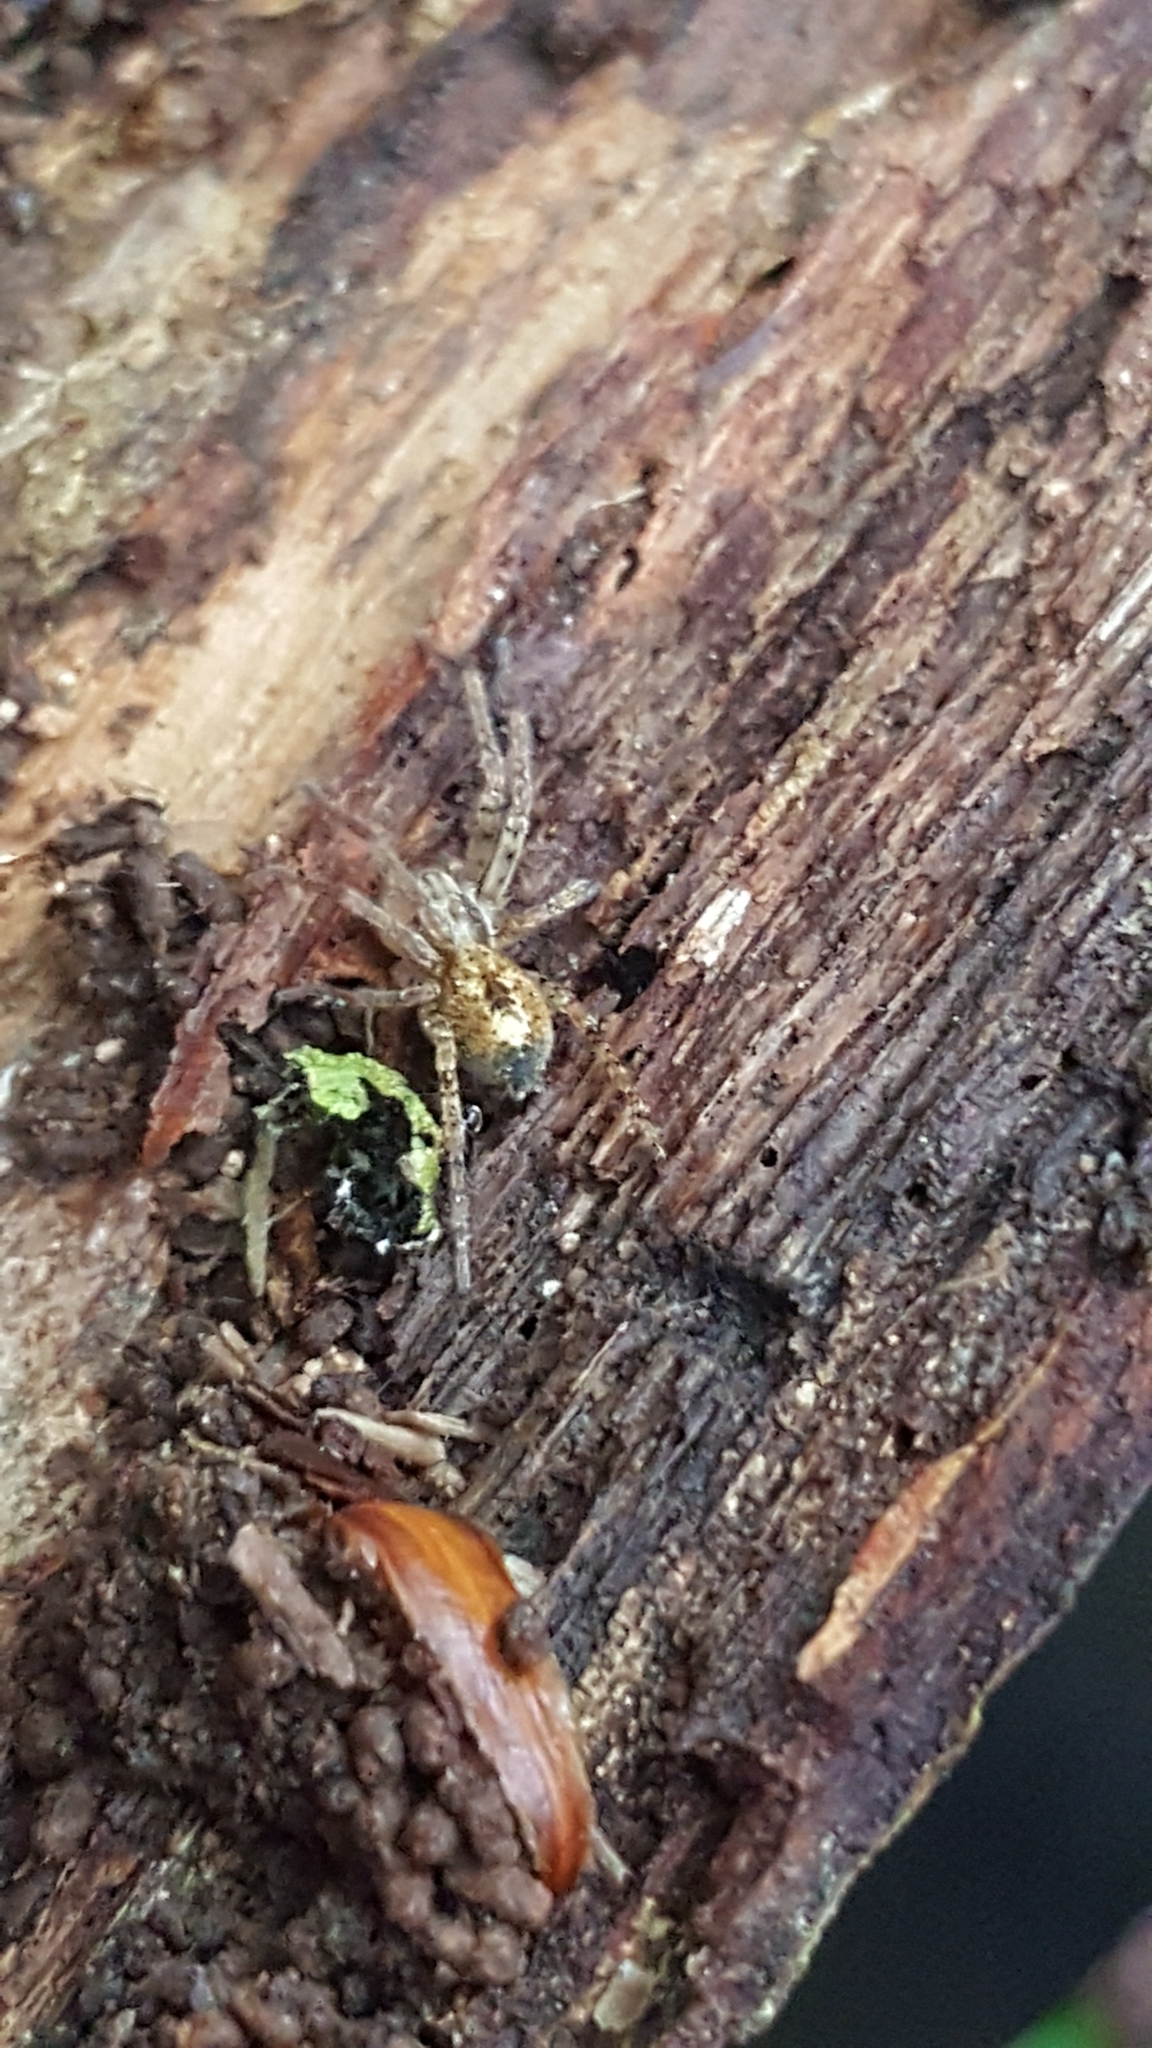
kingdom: Animalia
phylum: Arthropoda
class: Arachnida
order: Araneae
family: Anyphaenidae
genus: Anyphaena
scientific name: Anyphaena accentuata
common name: Buzzing spider
